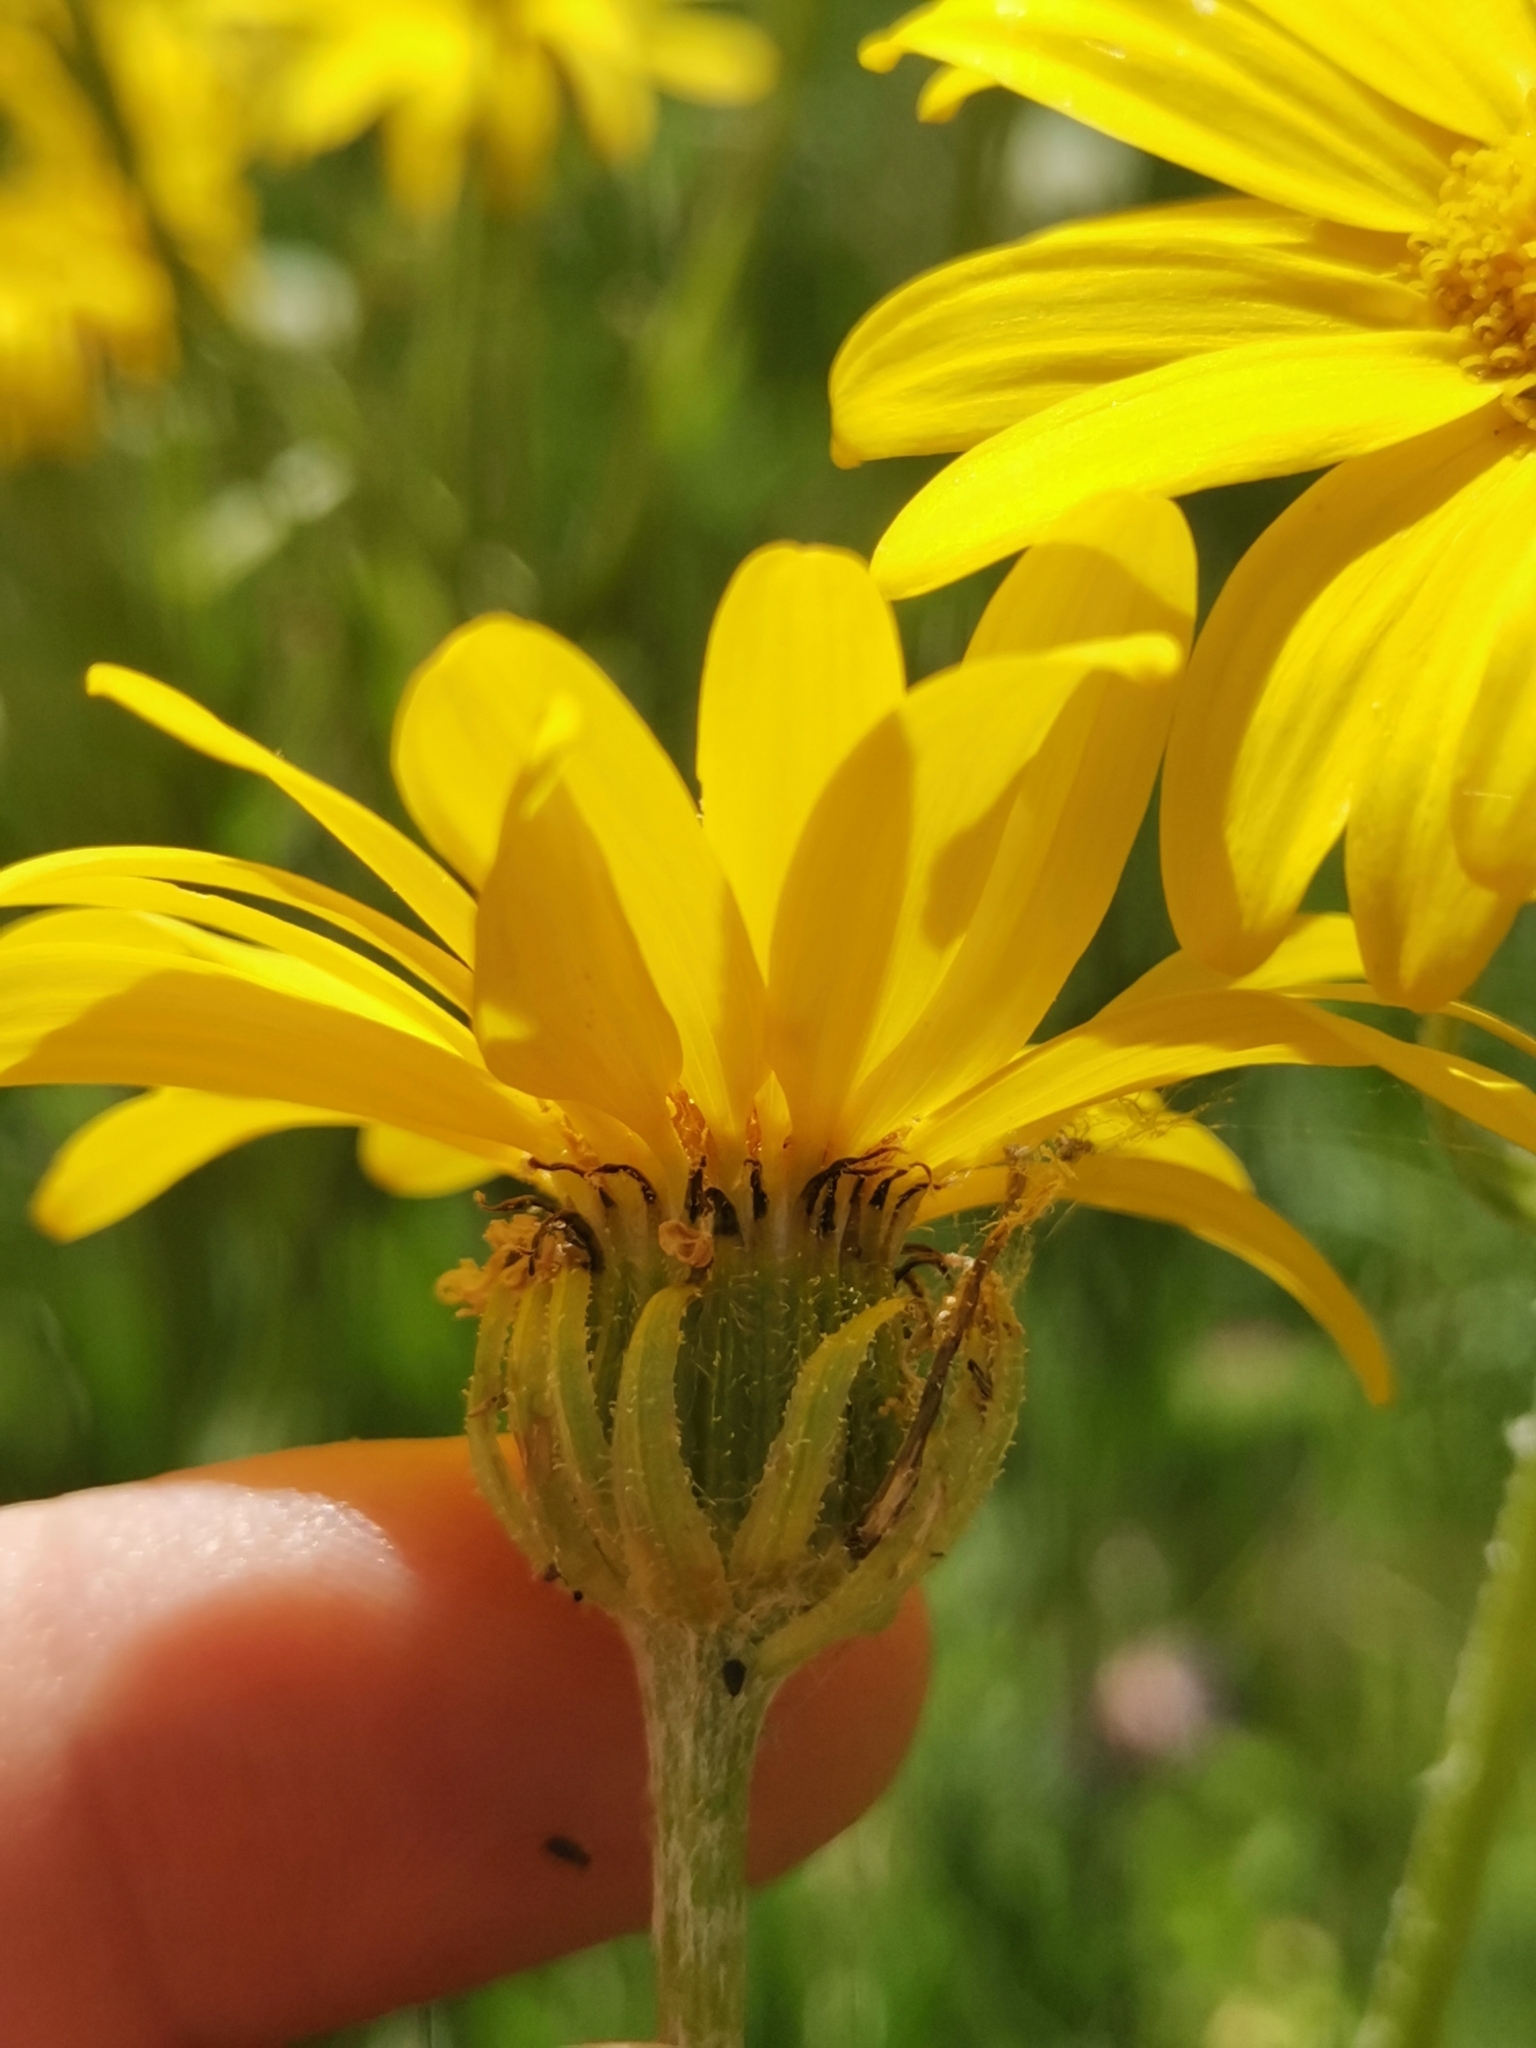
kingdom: Plantae
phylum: Tracheophyta
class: Magnoliopsida
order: Asterales
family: Asteraceae
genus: Senecio
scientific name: Senecio doronicum
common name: Chamois ragwort
